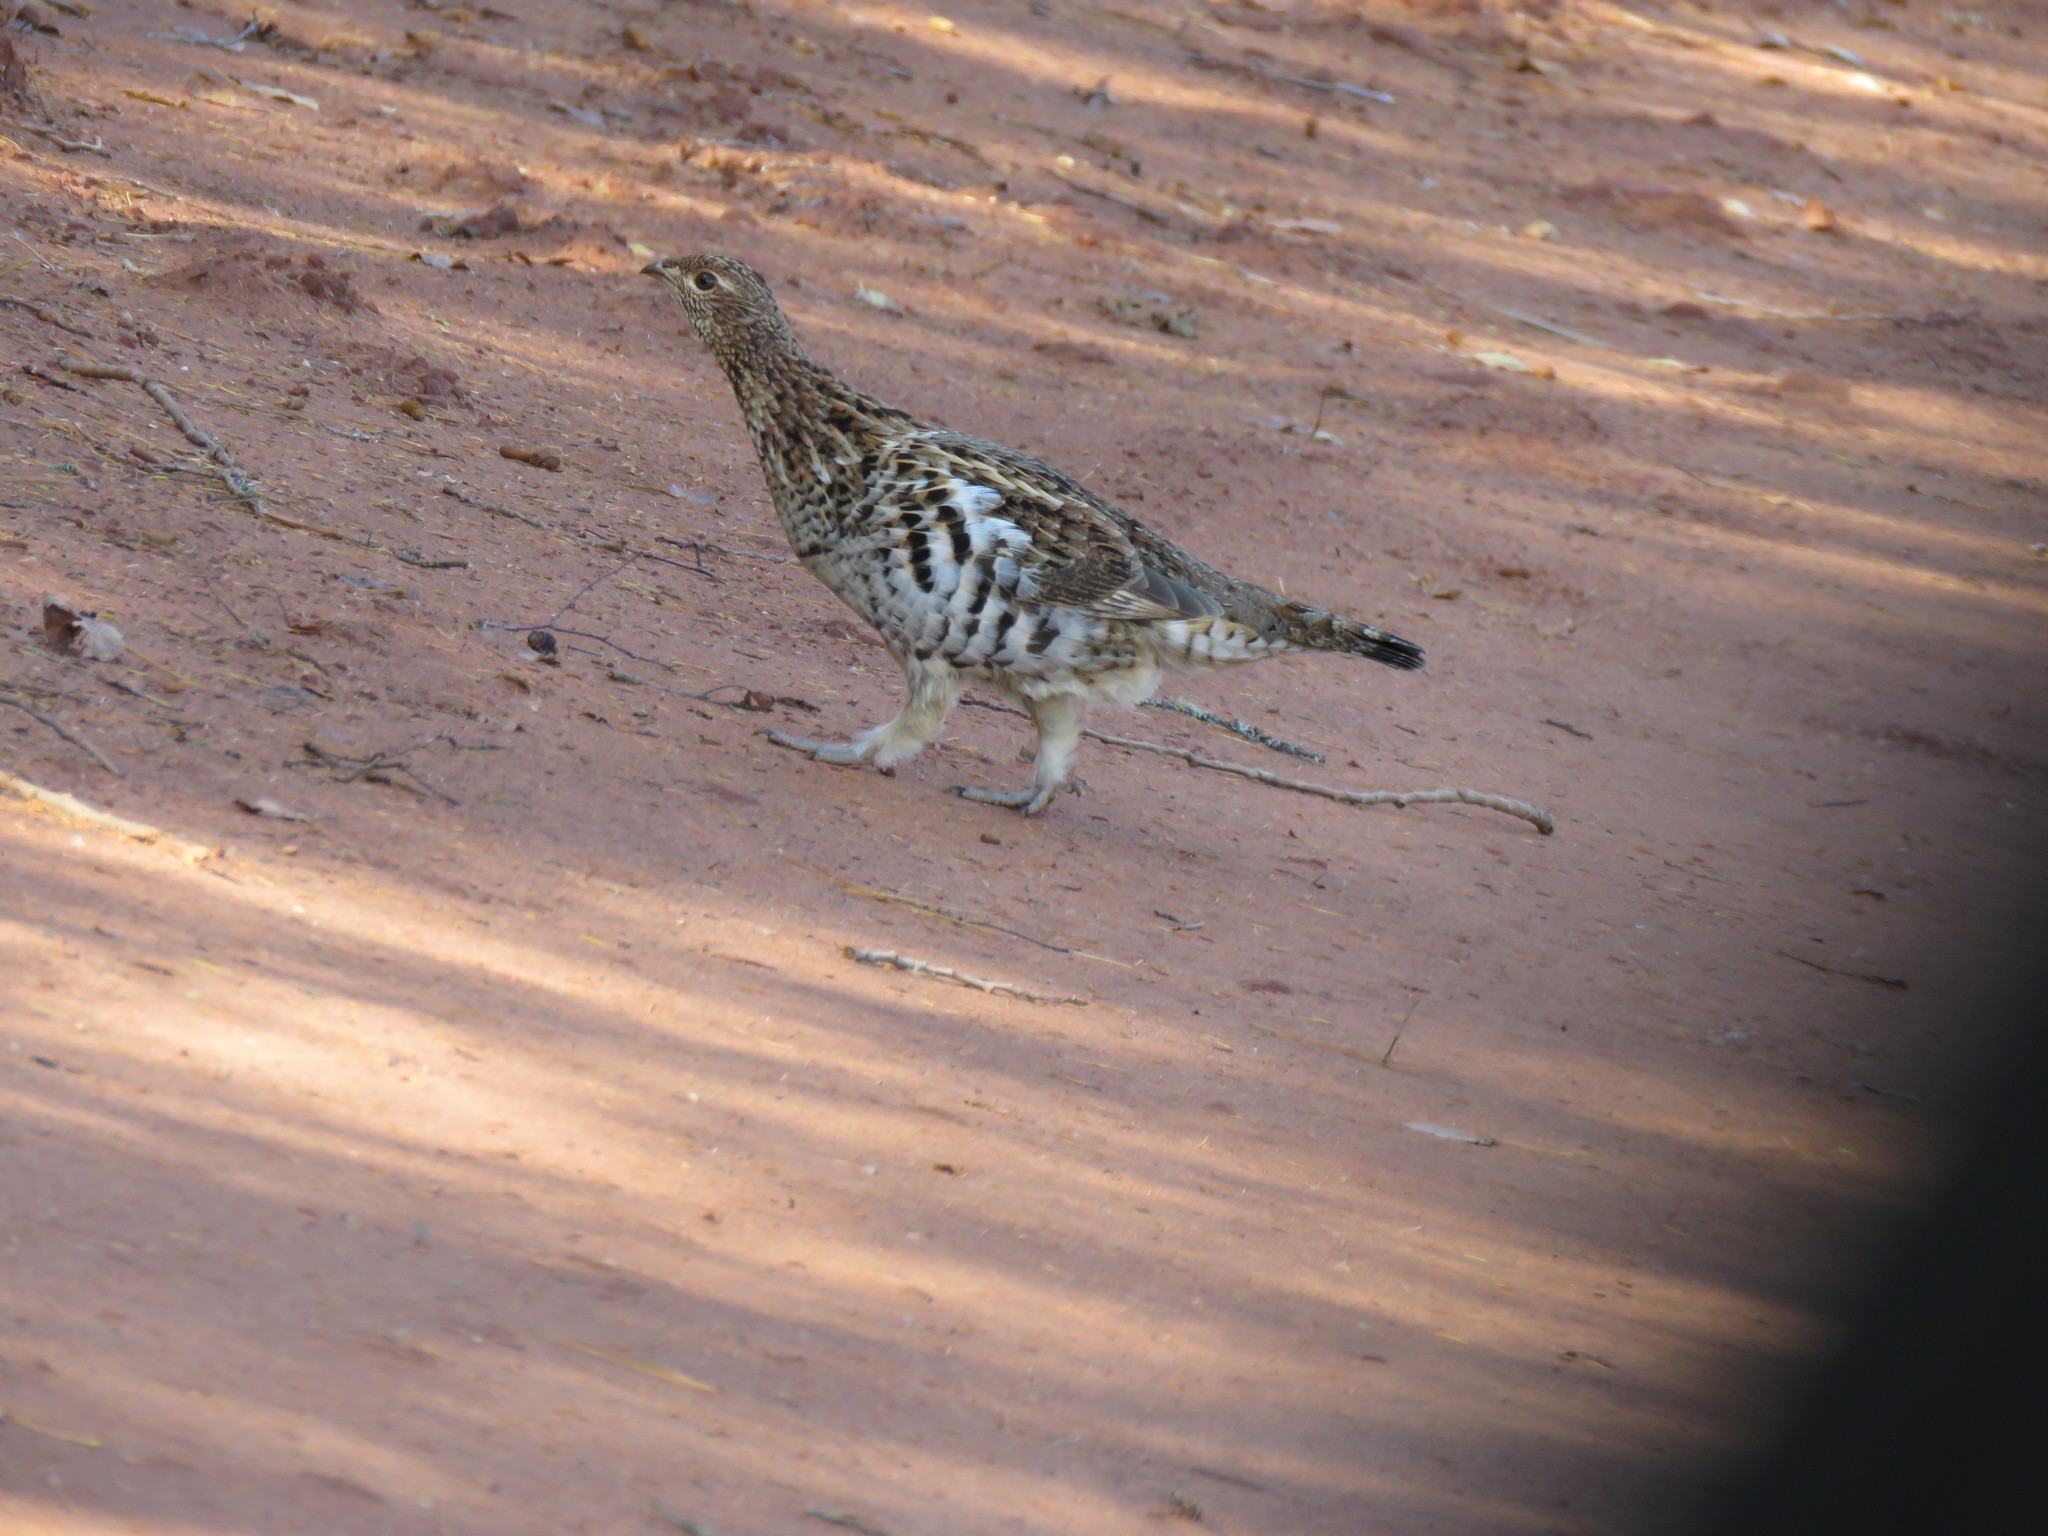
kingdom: Animalia
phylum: Chordata
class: Aves
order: Galliformes
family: Phasianidae
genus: Bonasa
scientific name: Bonasa umbellus
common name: Ruffed grouse
